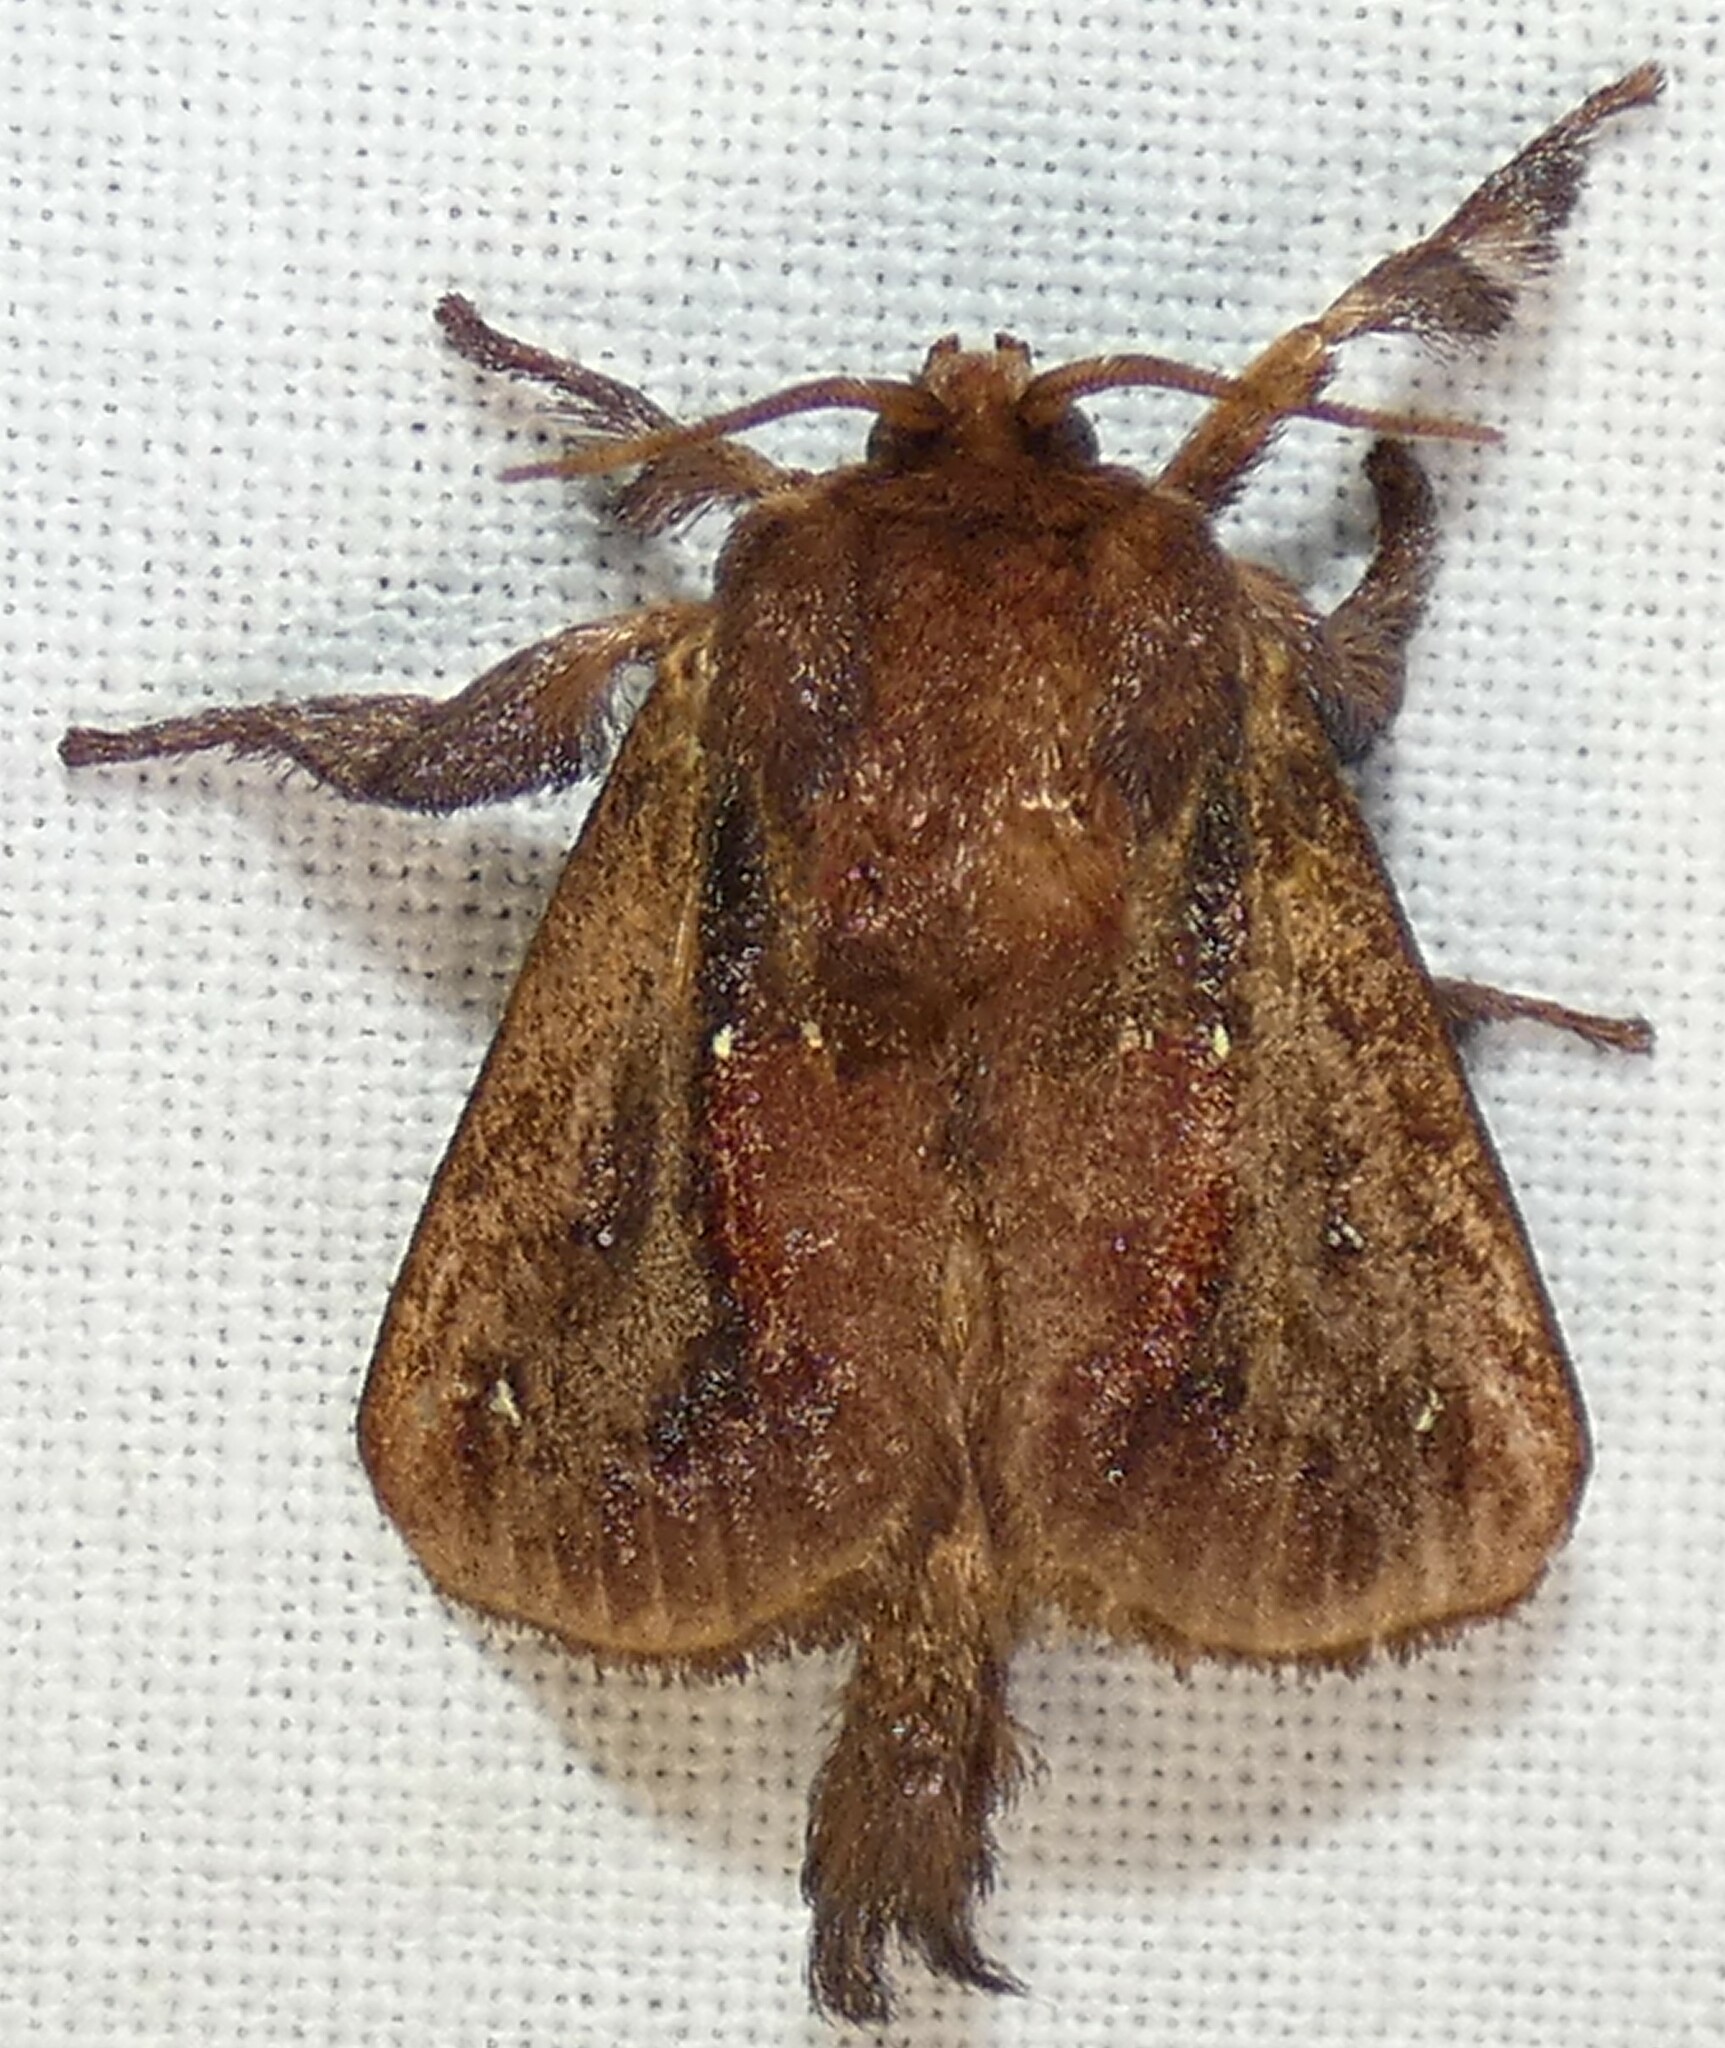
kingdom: Animalia
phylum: Arthropoda
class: Insecta
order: Lepidoptera
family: Limacodidae
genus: Acharia
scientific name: Acharia stimulea
